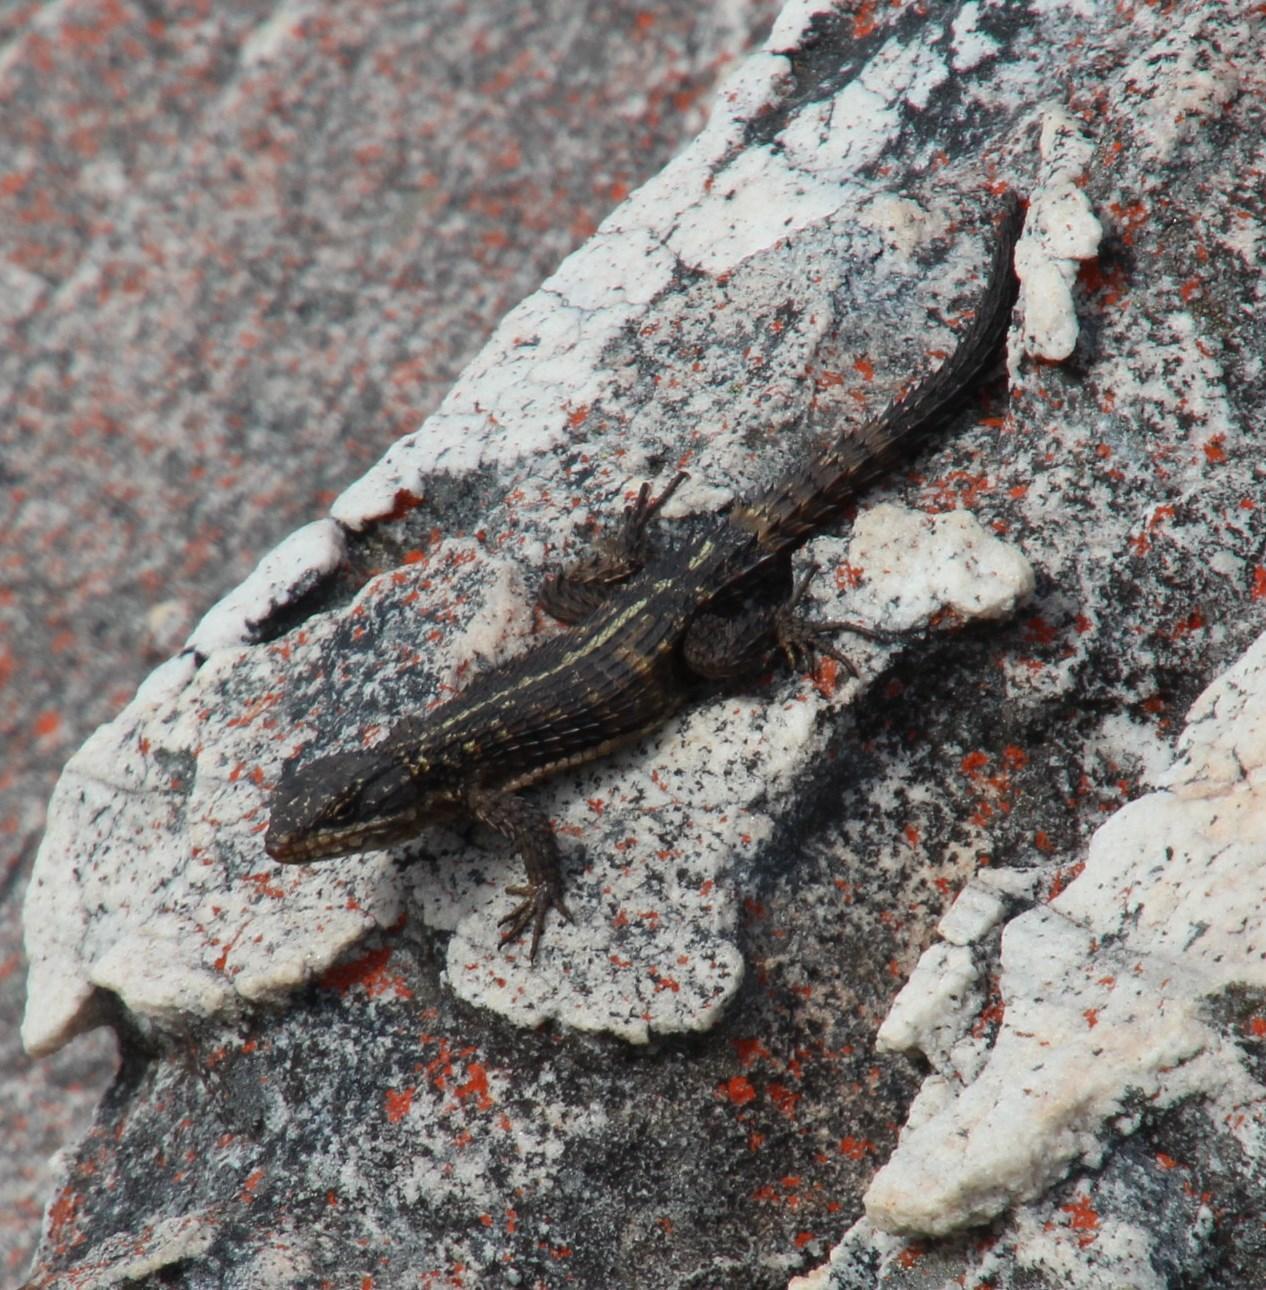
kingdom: Animalia
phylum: Chordata
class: Squamata
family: Cordylidae
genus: Cordylus
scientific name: Cordylus cordylus
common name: Cape girdled lizard
